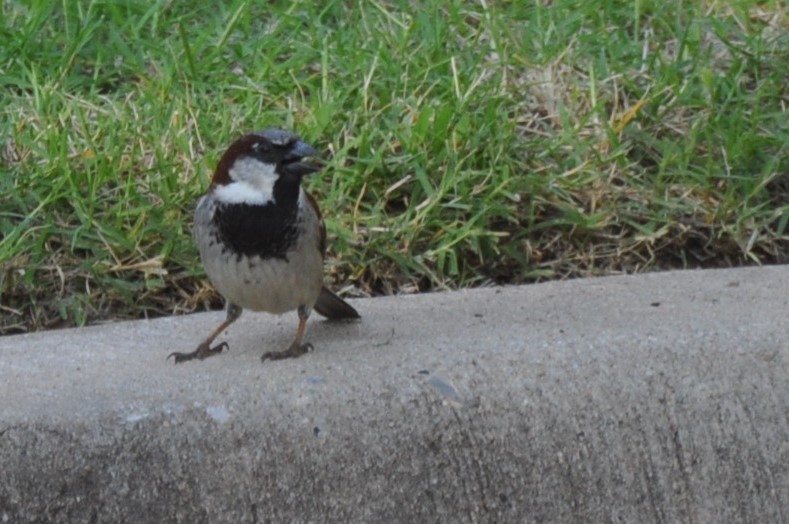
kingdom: Animalia
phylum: Chordata
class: Aves
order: Passeriformes
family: Passeridae
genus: Passer
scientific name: Passer domesticus
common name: House sparrow
